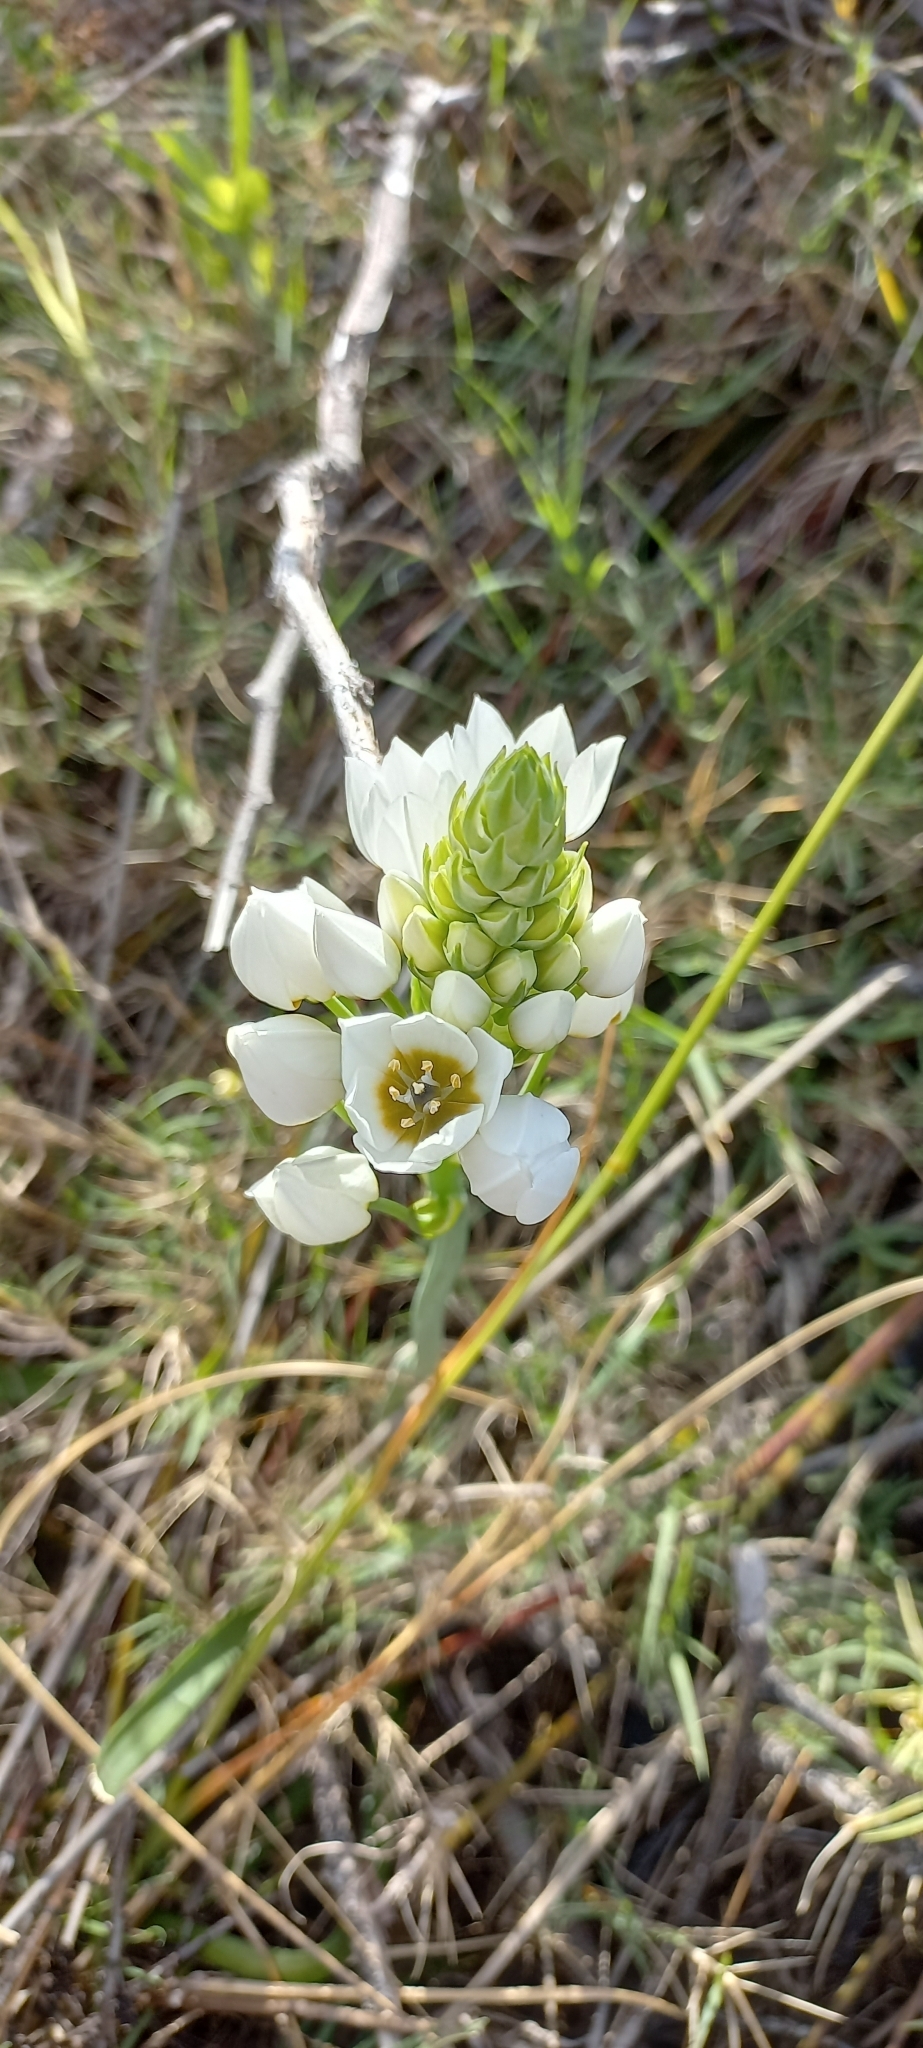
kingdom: Plantae
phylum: Tracheophyta
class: Liliopsida
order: Asparagales
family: Asparagaceae
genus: Ornithogalum
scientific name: Ornithogalum thyrsoides
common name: Chincherinchee
